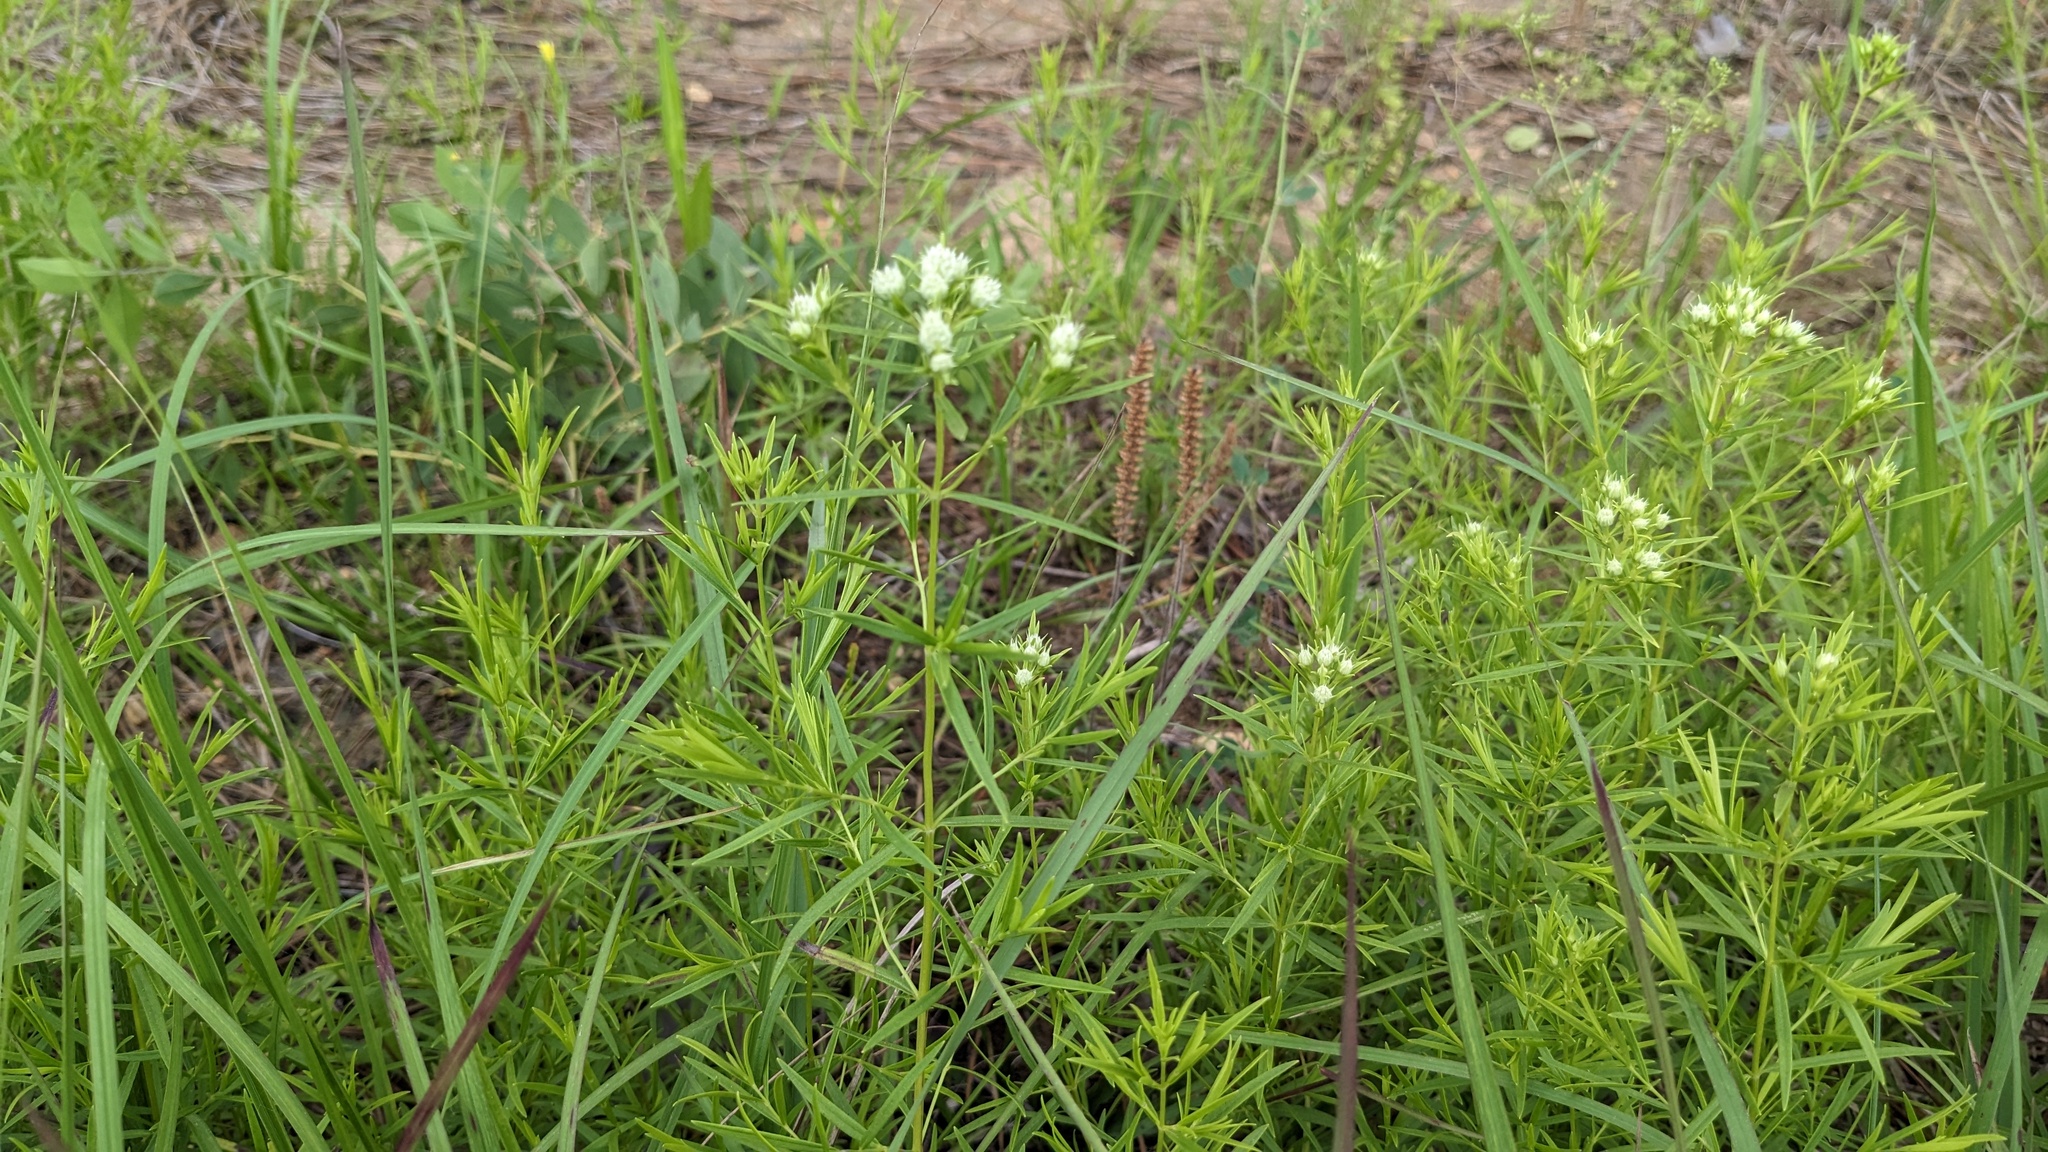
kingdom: Plantae
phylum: Tracheophyta
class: Magnoliopsida
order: Lamiales
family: Lamiaceae
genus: Pycnanthemum
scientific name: Pycnanthemum tenuifolium
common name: Narrow-leaf mountain-mint
